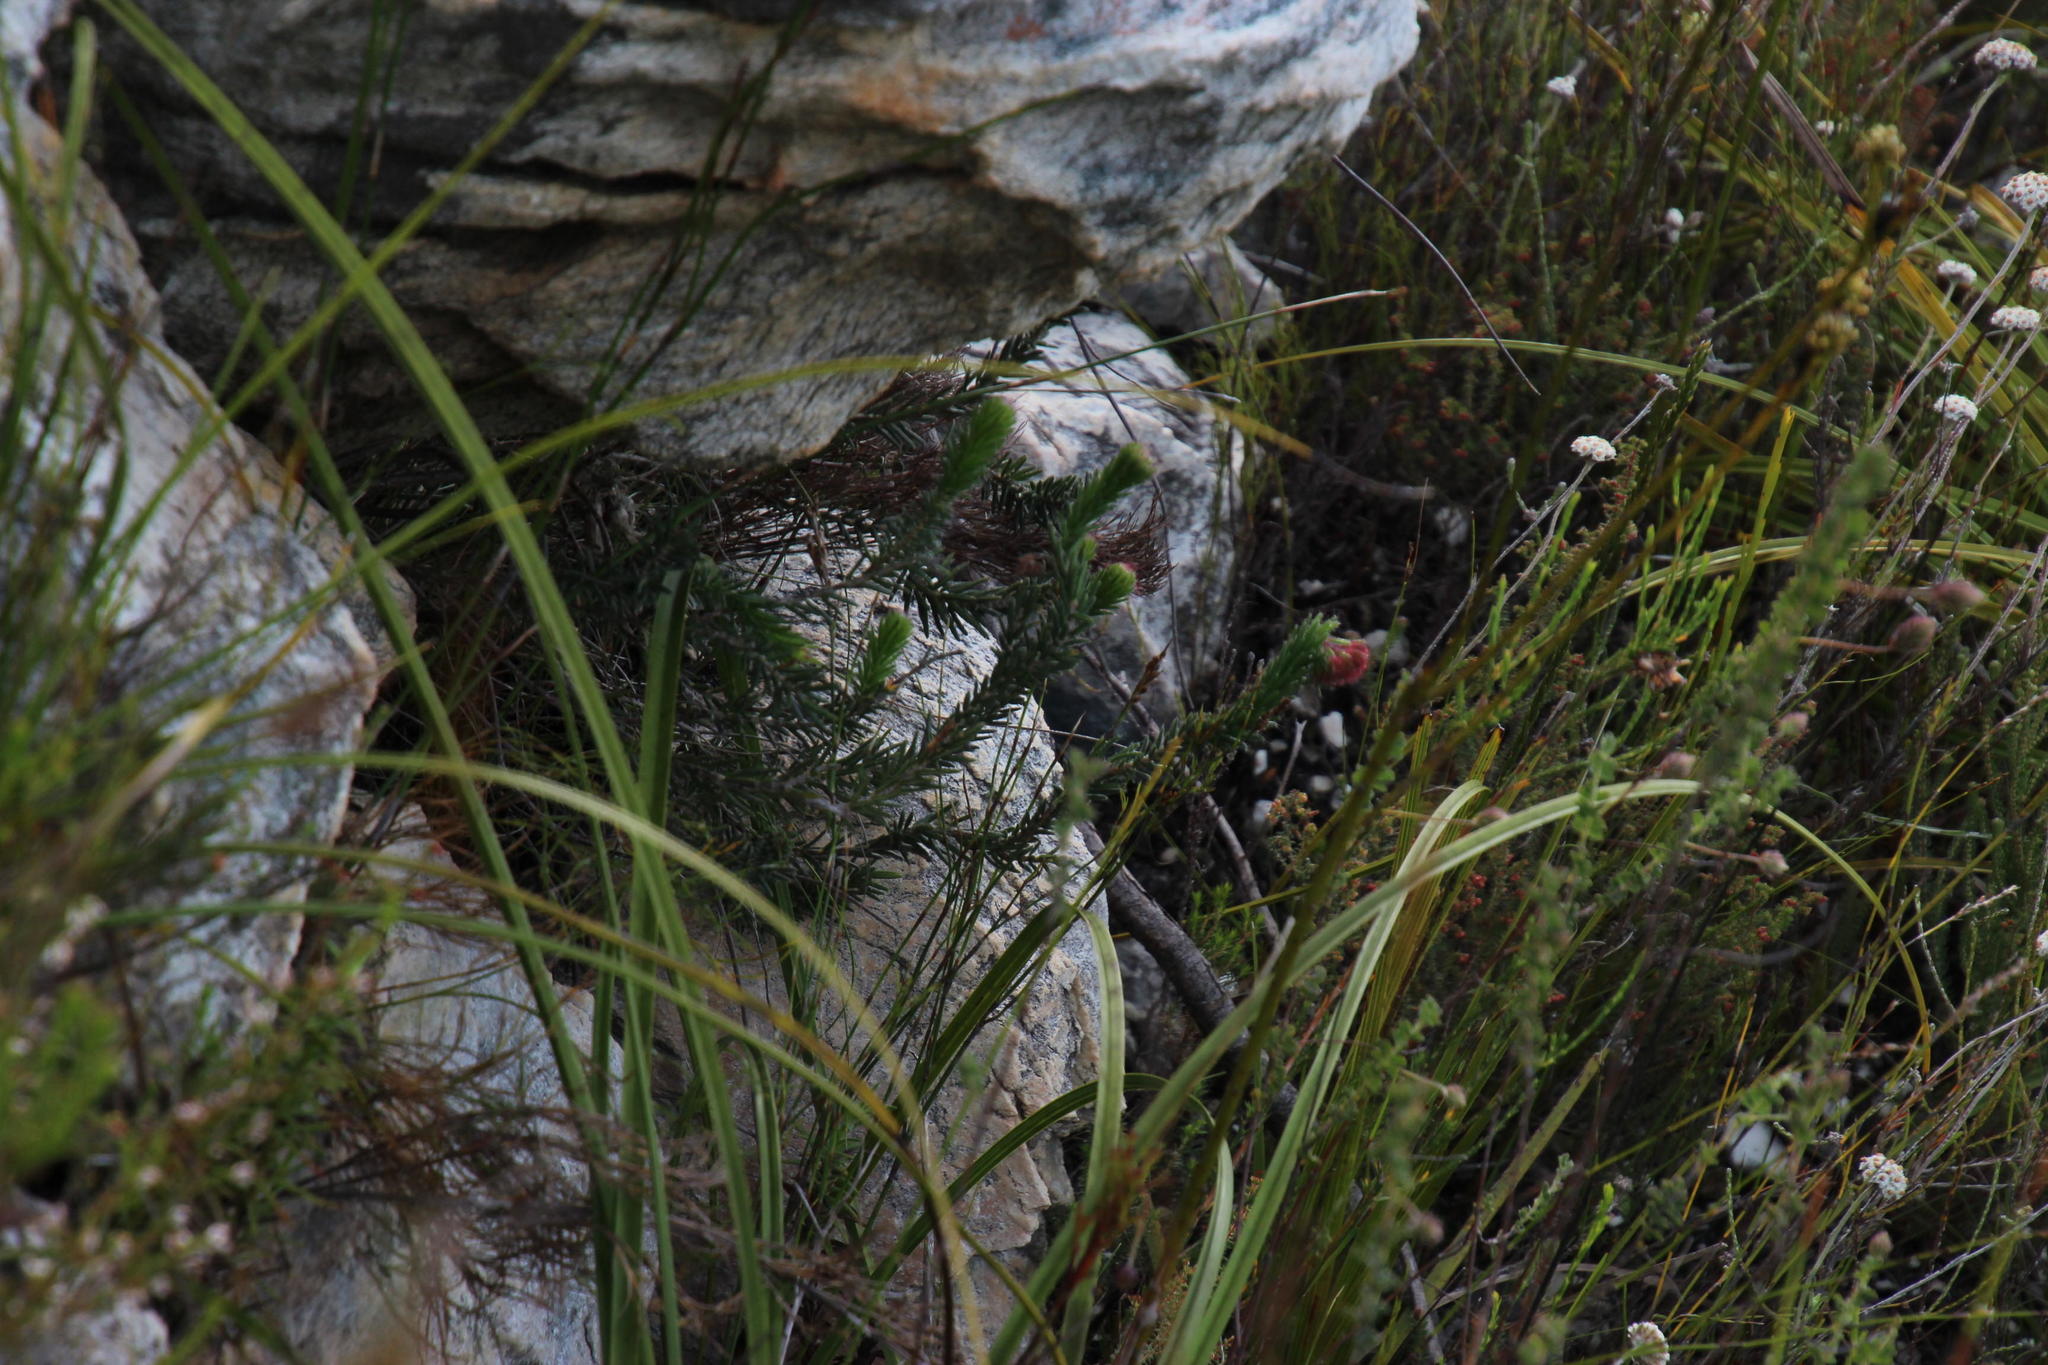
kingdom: Plantae
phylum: Tracheophyta
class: Magnoliopsida
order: Ericales
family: Ericaceae
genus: Erica
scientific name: Erica cerinthoides
